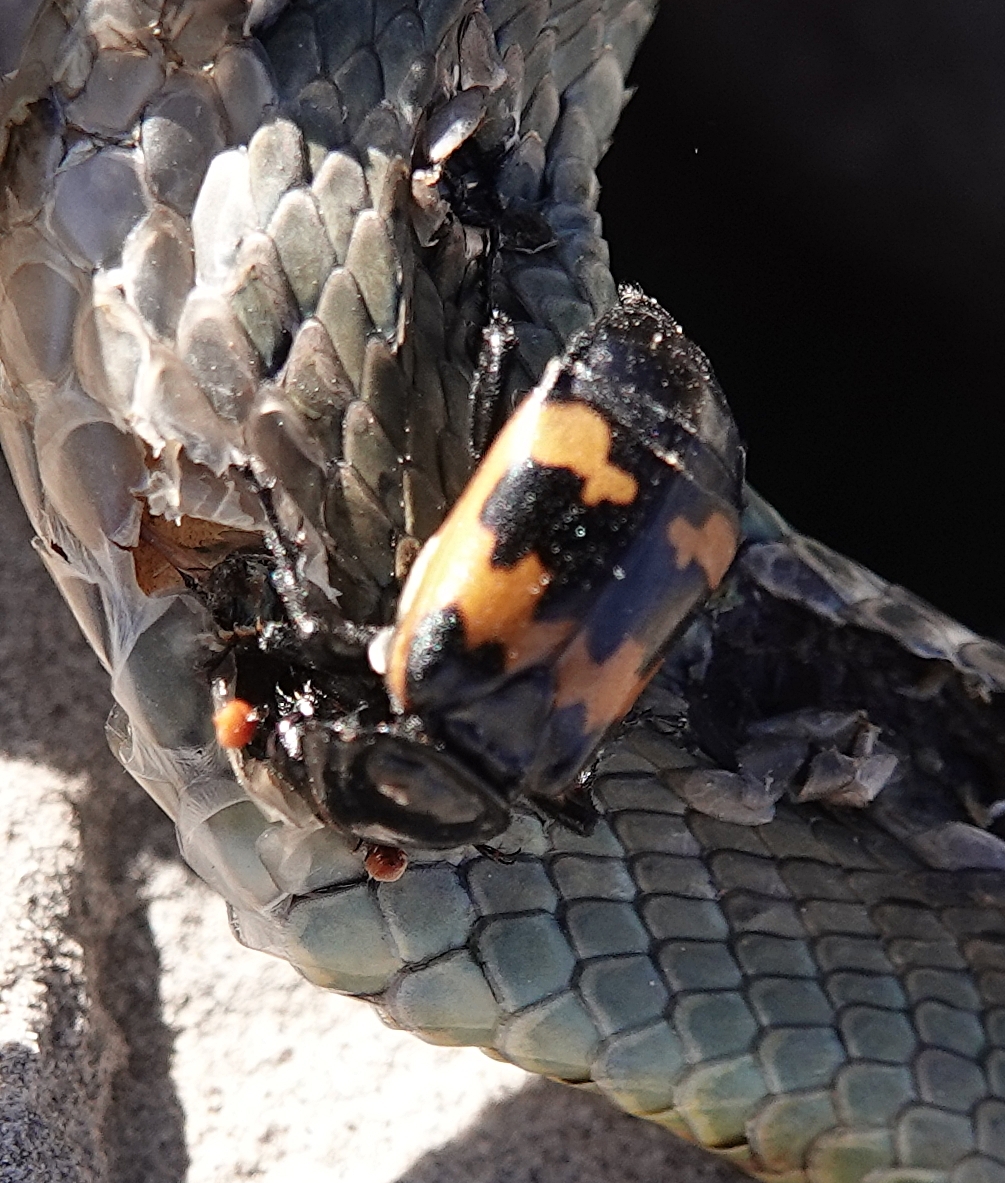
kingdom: Animalia
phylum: Arthropoda
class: Insecta
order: Coleoptera
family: Staphylinidae
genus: Nicrophorus
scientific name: Nicrophorus marginatus
